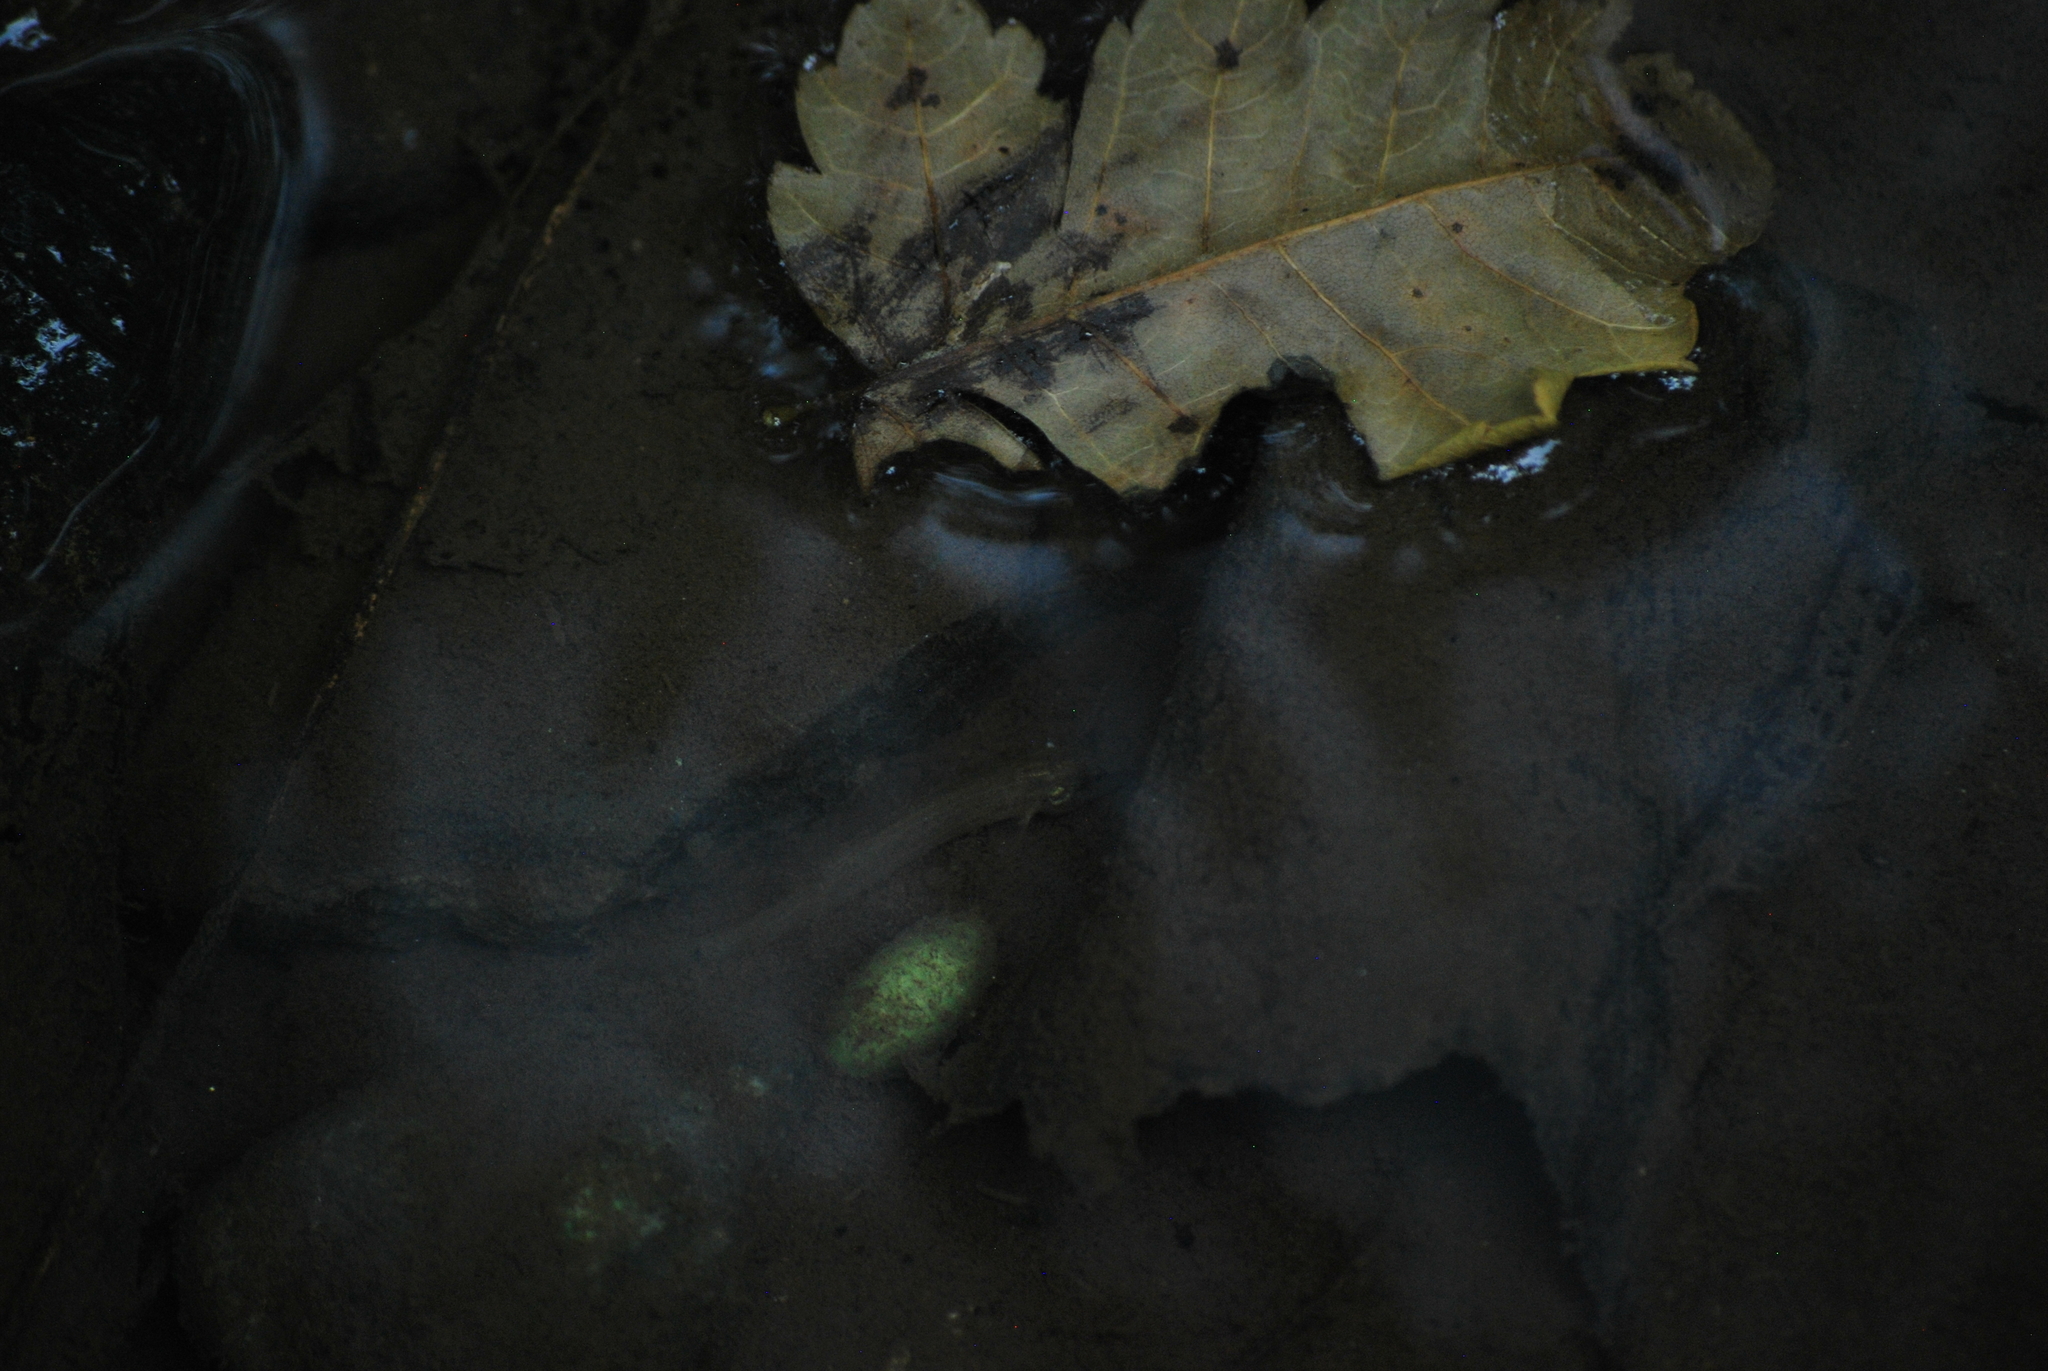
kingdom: Animalia
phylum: Chordata
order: Cypriniformes
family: Cobitidae
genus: Misgurnus
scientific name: Misgurnus anguillicaudatus
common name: Oriental weatherfish
